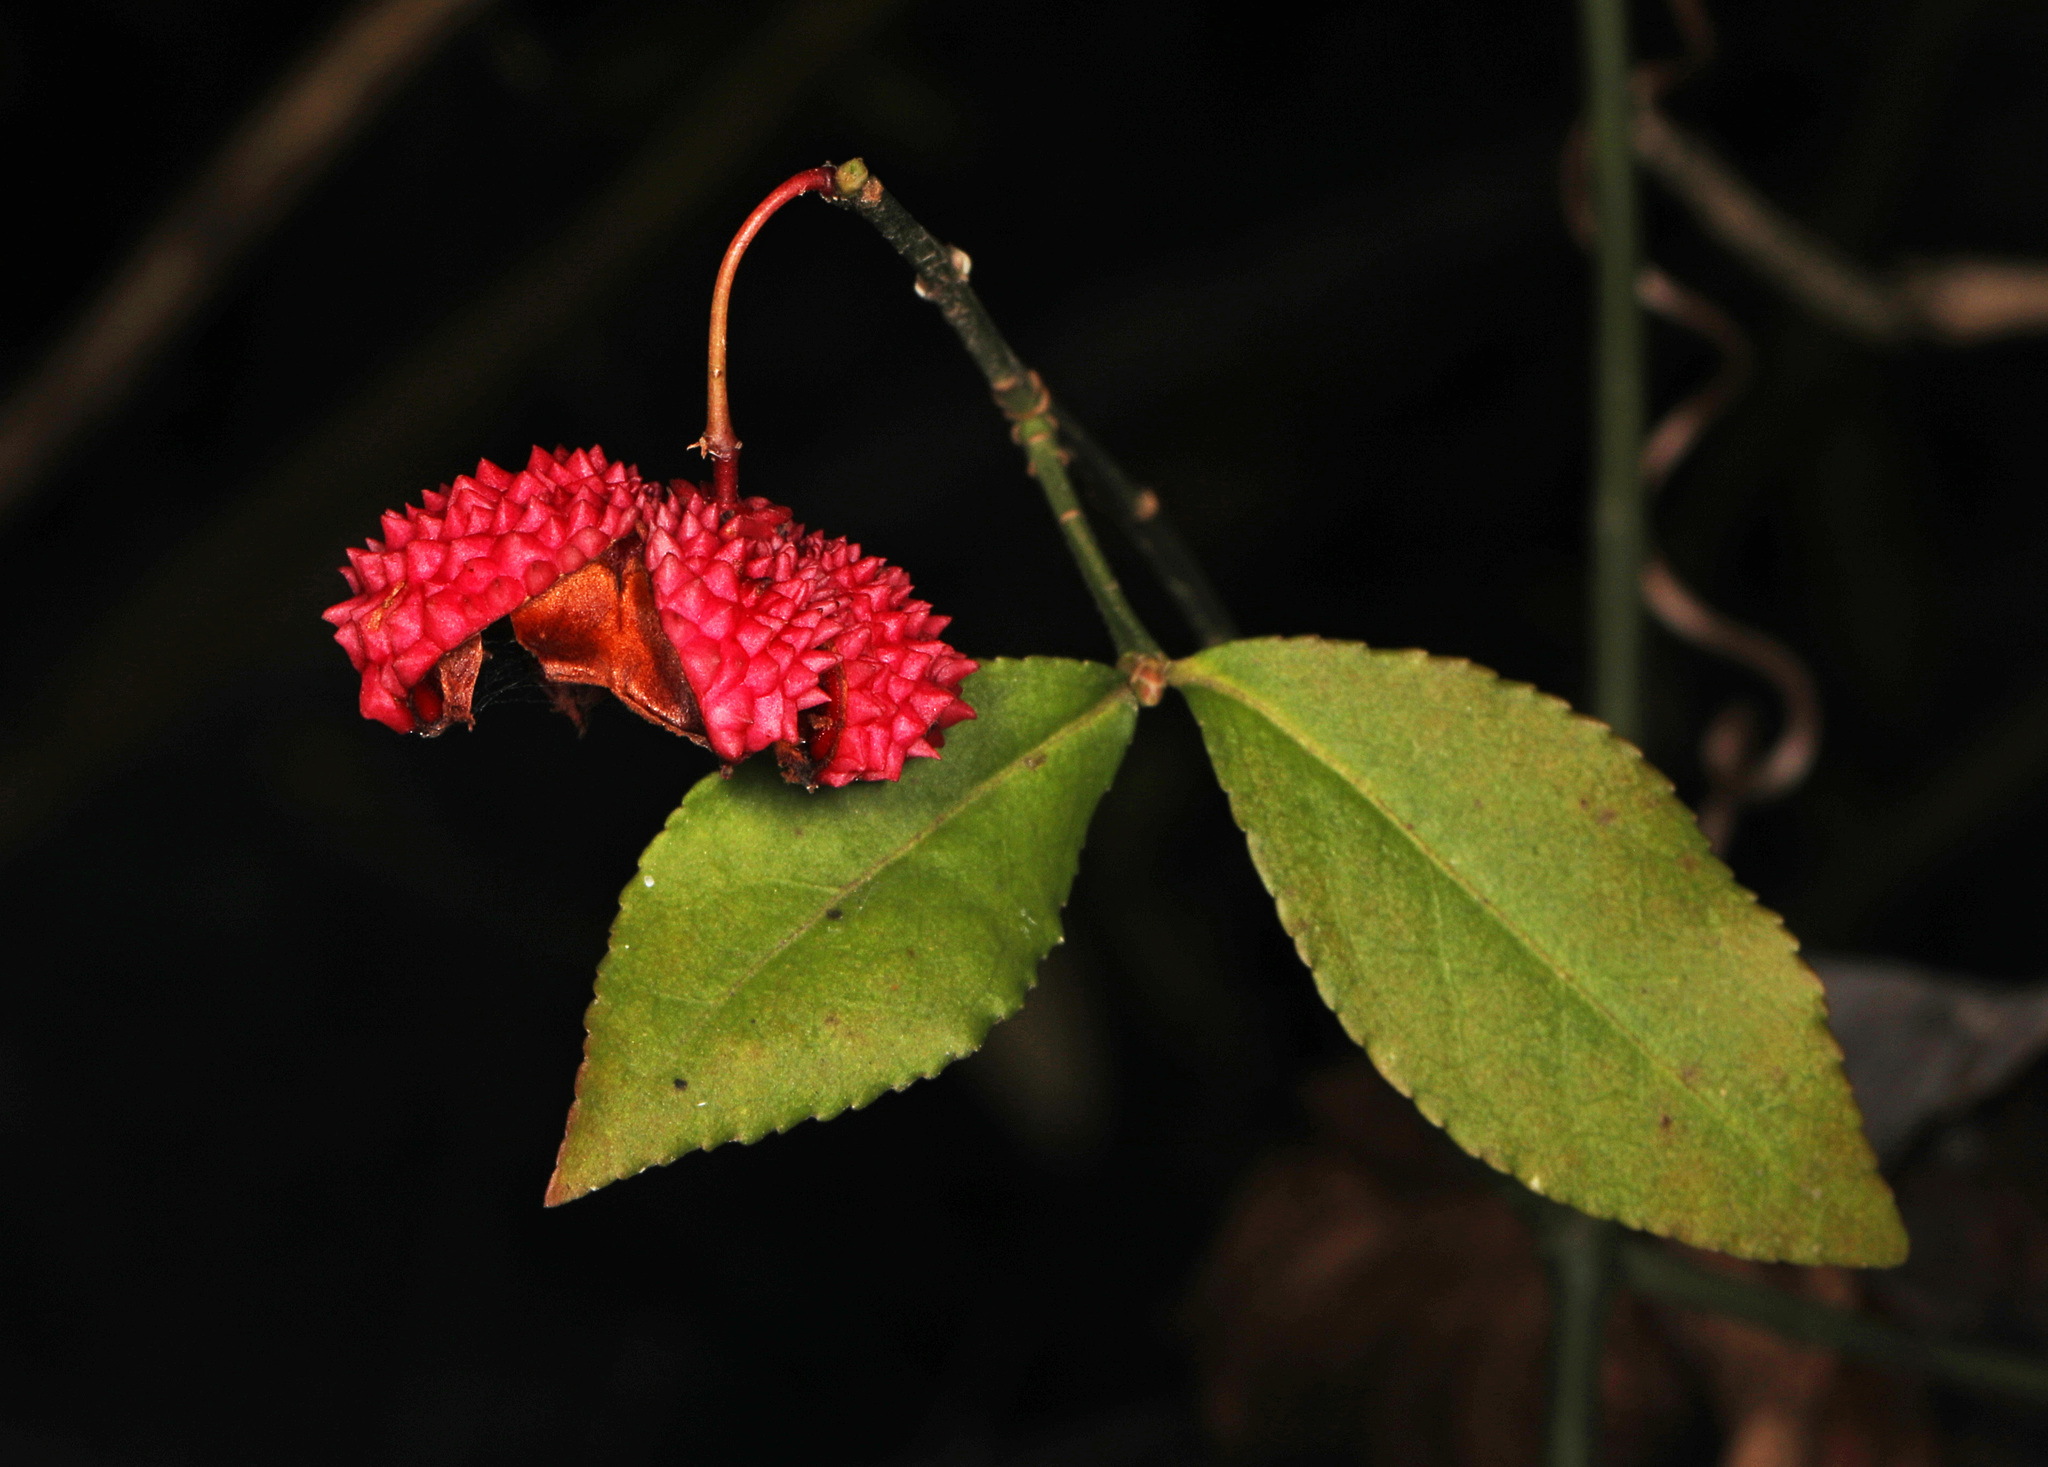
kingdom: Plantae
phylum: Tracheophyta
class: Magnoliopsida
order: Celastrales
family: Celastraceae
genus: Euonymus
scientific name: Euonymus americanus
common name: Bursting-heart
